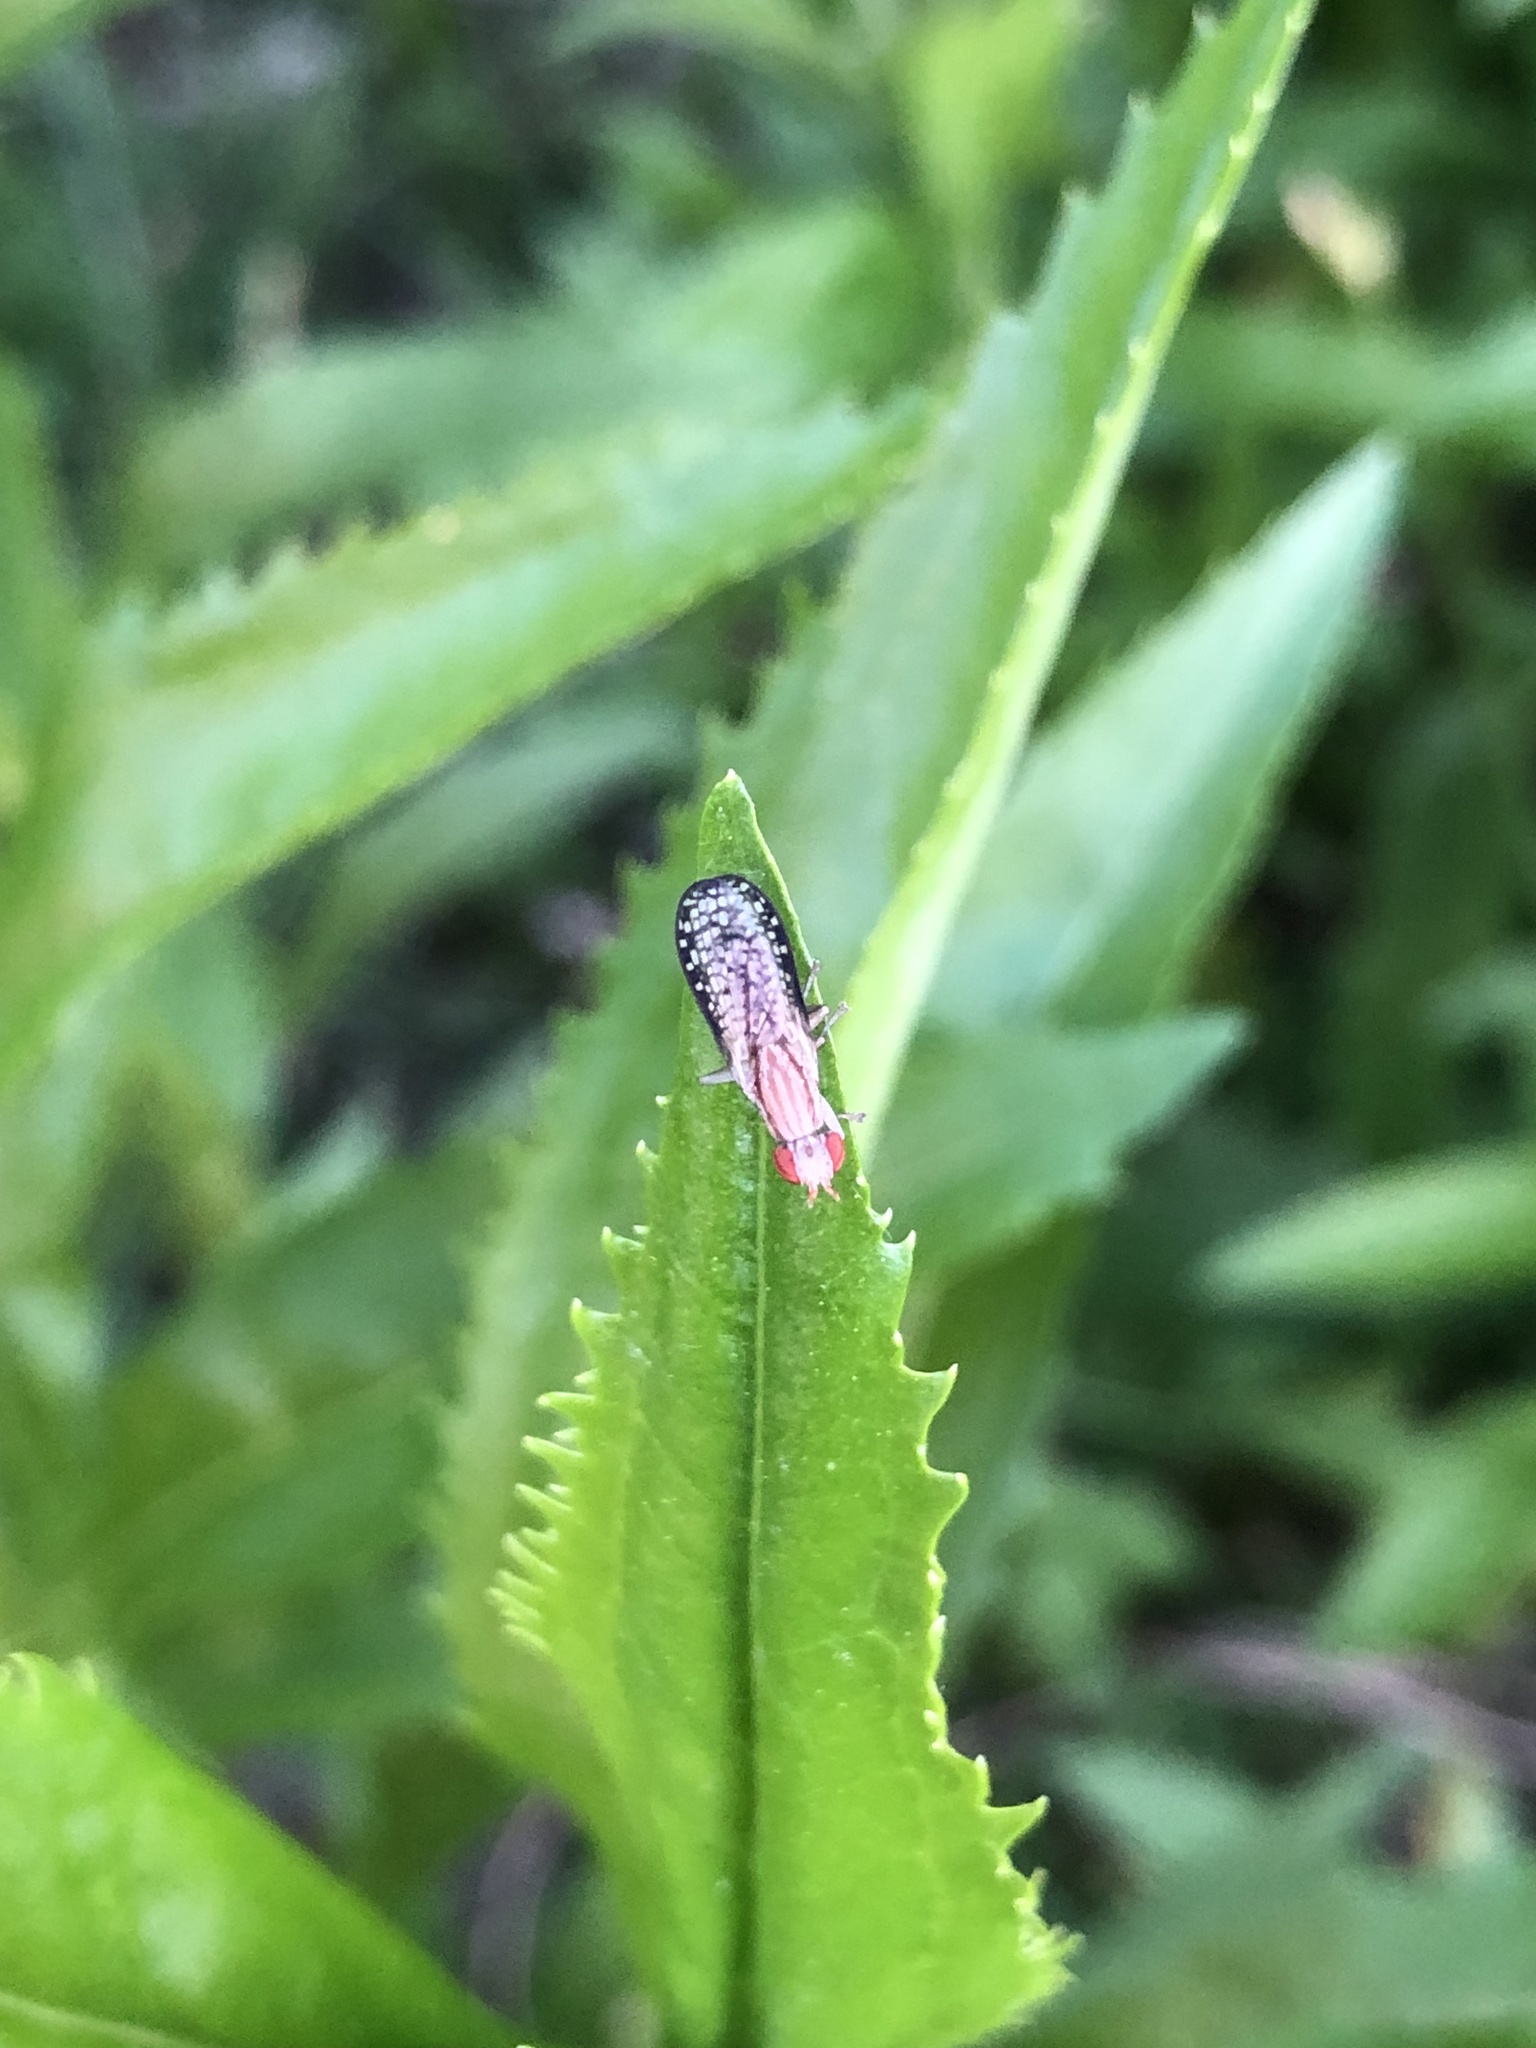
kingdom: Animalia
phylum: Arthropoda
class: Insecta
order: Diptera
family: Sciomyzidae
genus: Trypetoptera
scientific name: Trypetoptera canadensis
